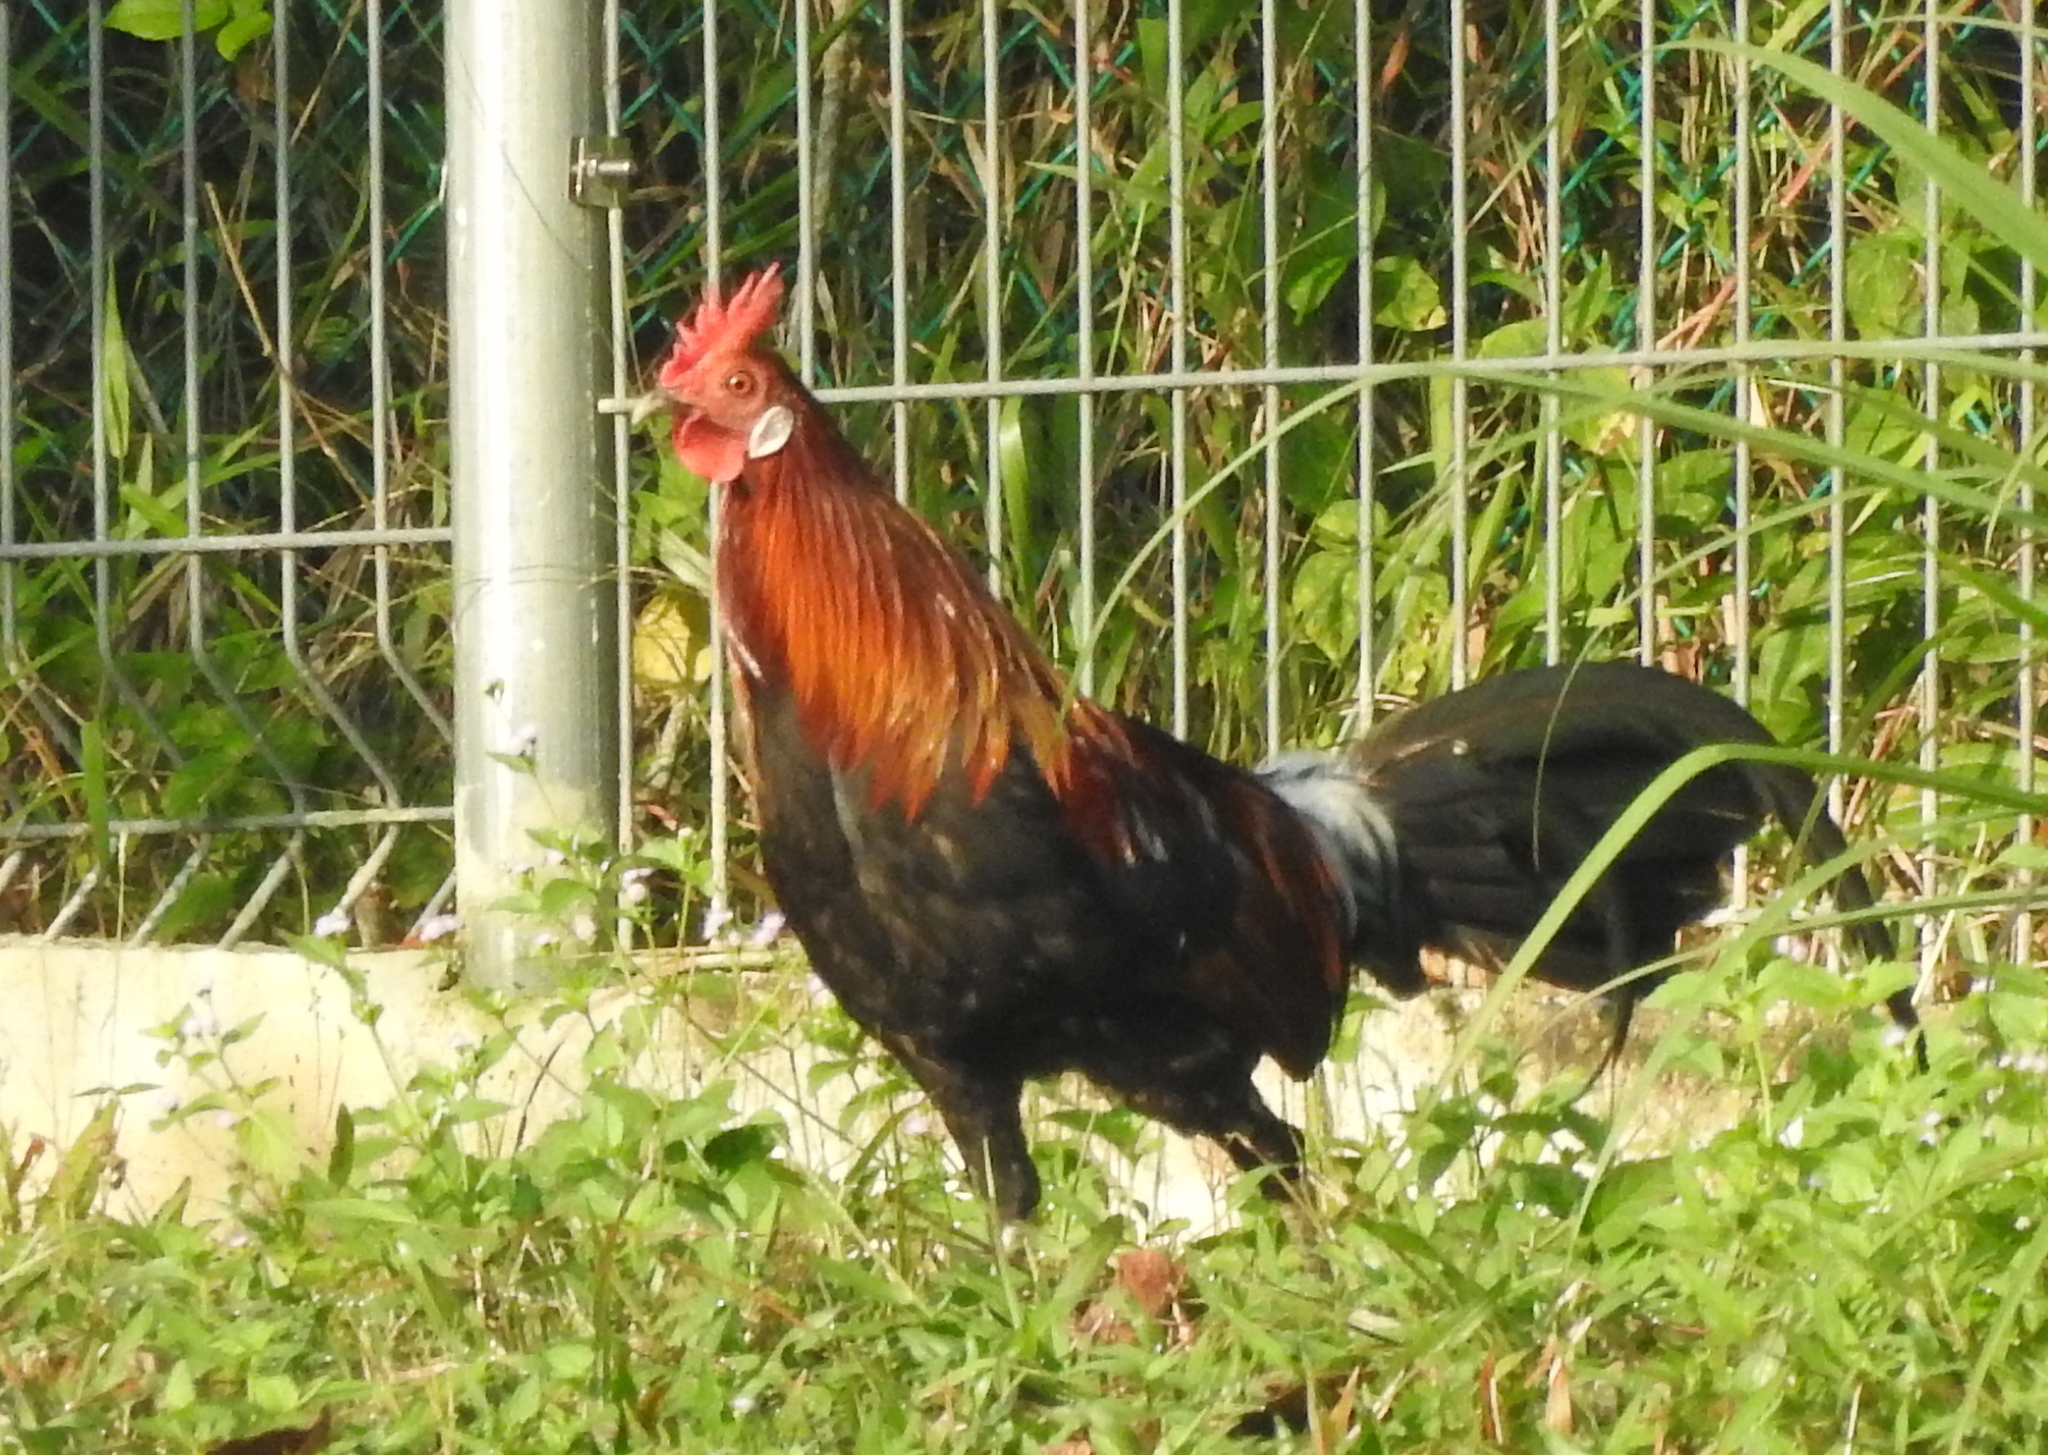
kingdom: Animalia
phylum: Chordata
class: Aves
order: Galliformes
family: Phasianidae
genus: Gallus
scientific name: Gallus gallus
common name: Red junglefowl
